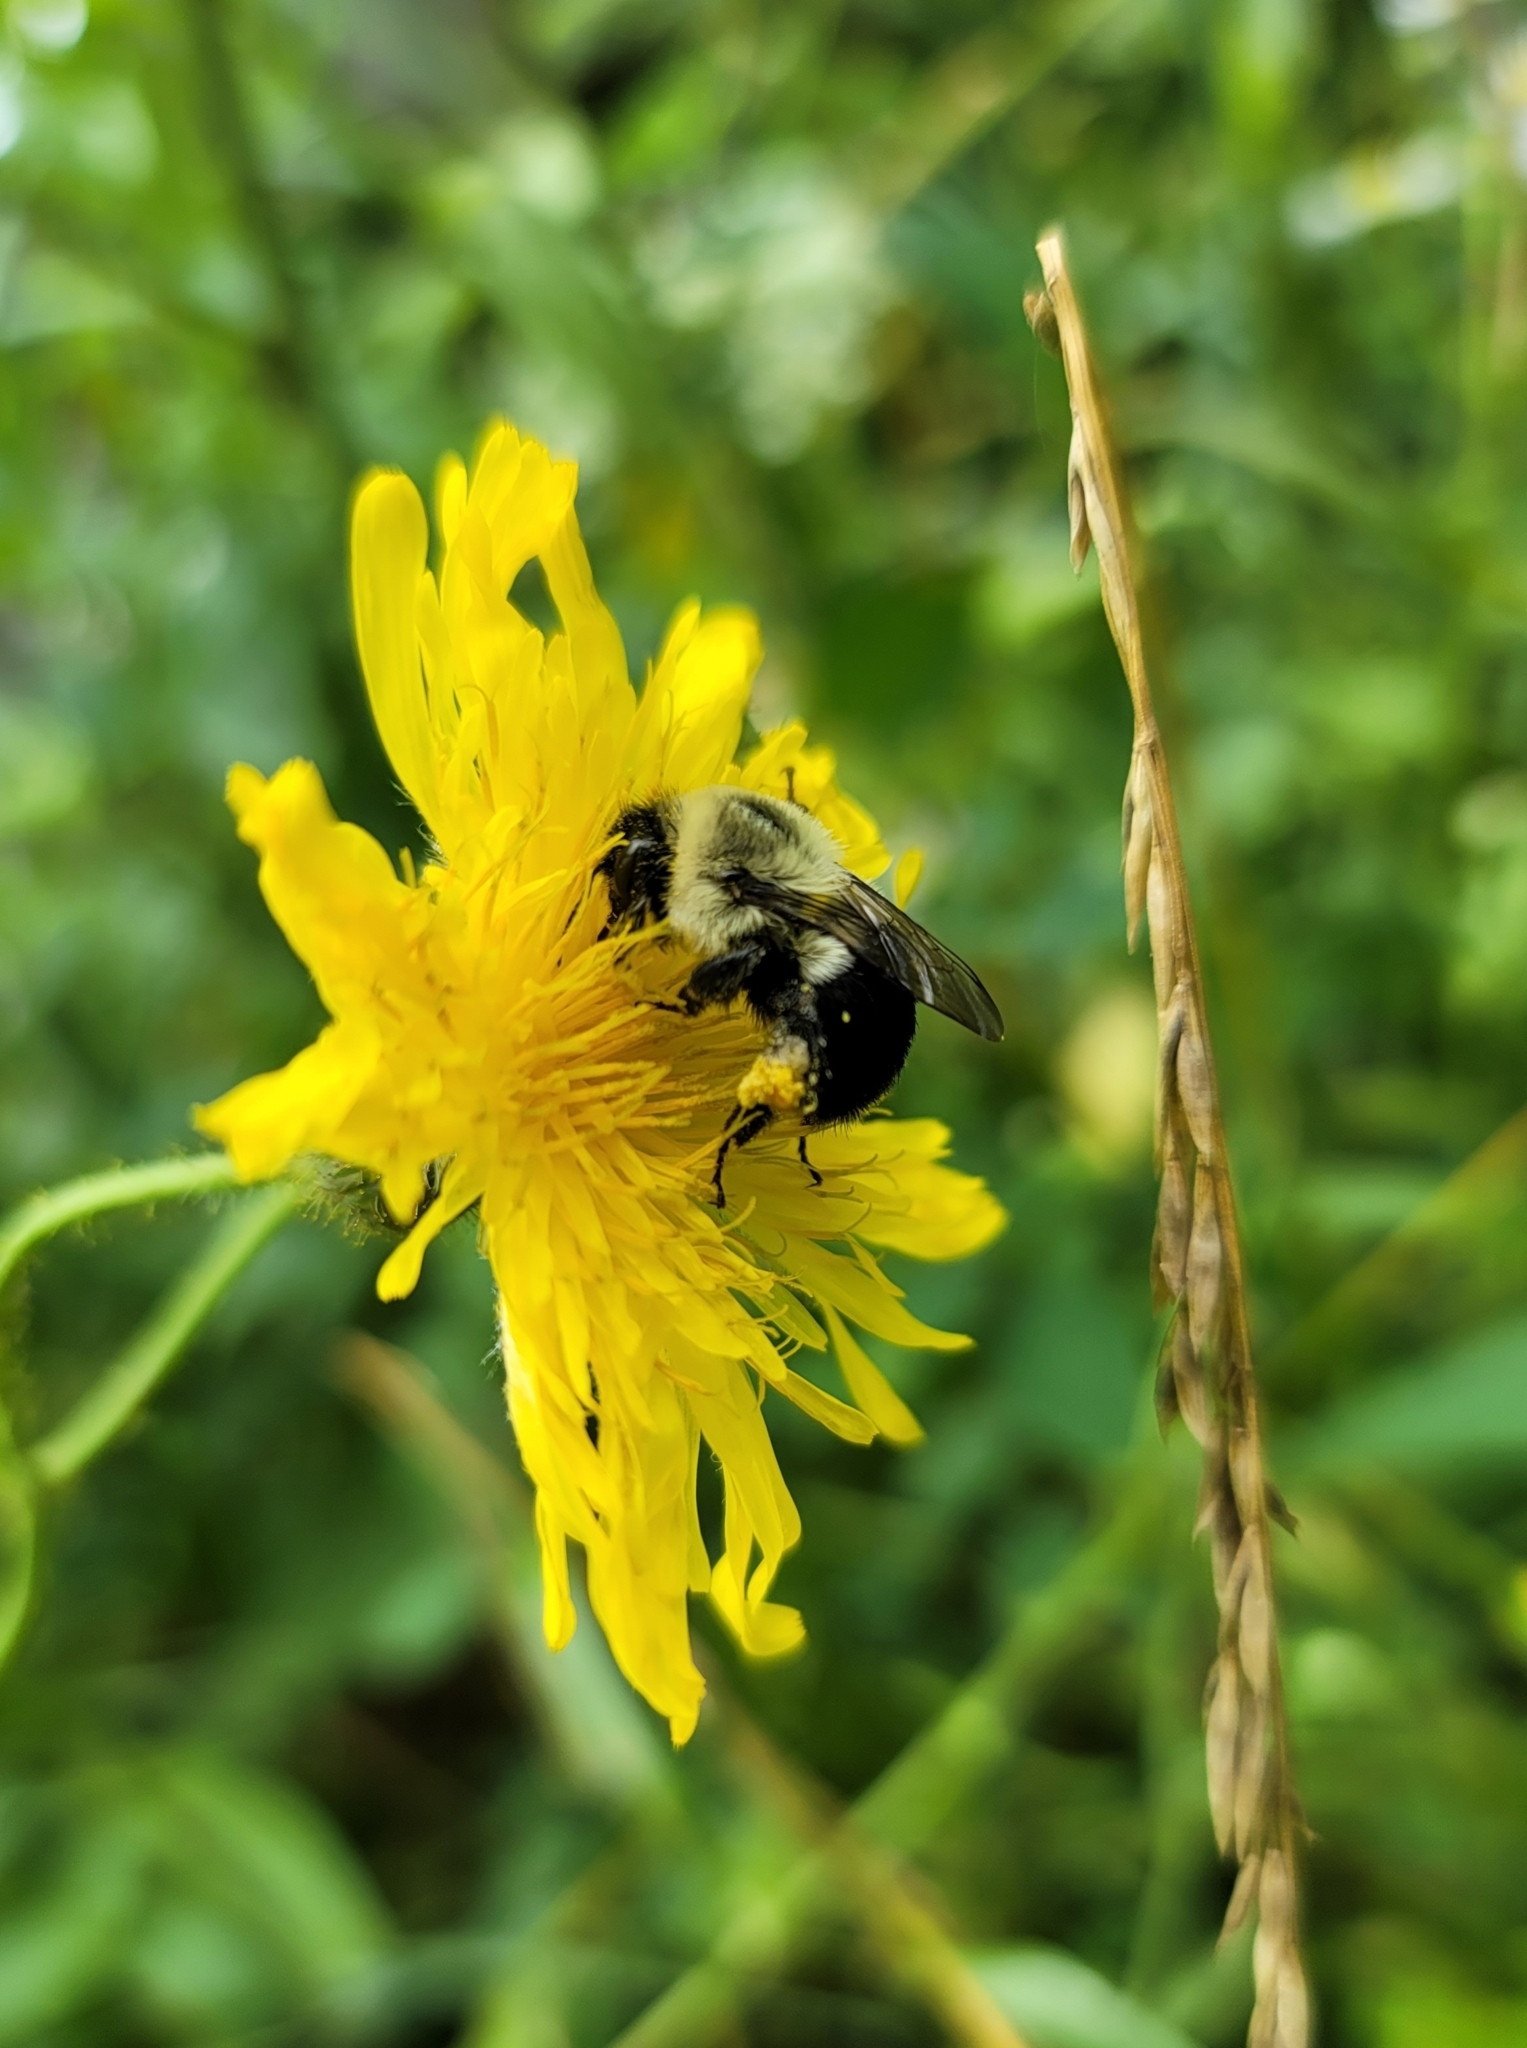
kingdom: Animalia
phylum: Arthropoda
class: Insecta
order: Hymenoptera
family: Apidae
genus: Bombus
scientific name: Bombus impatiens
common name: Common eastern bumble bee
